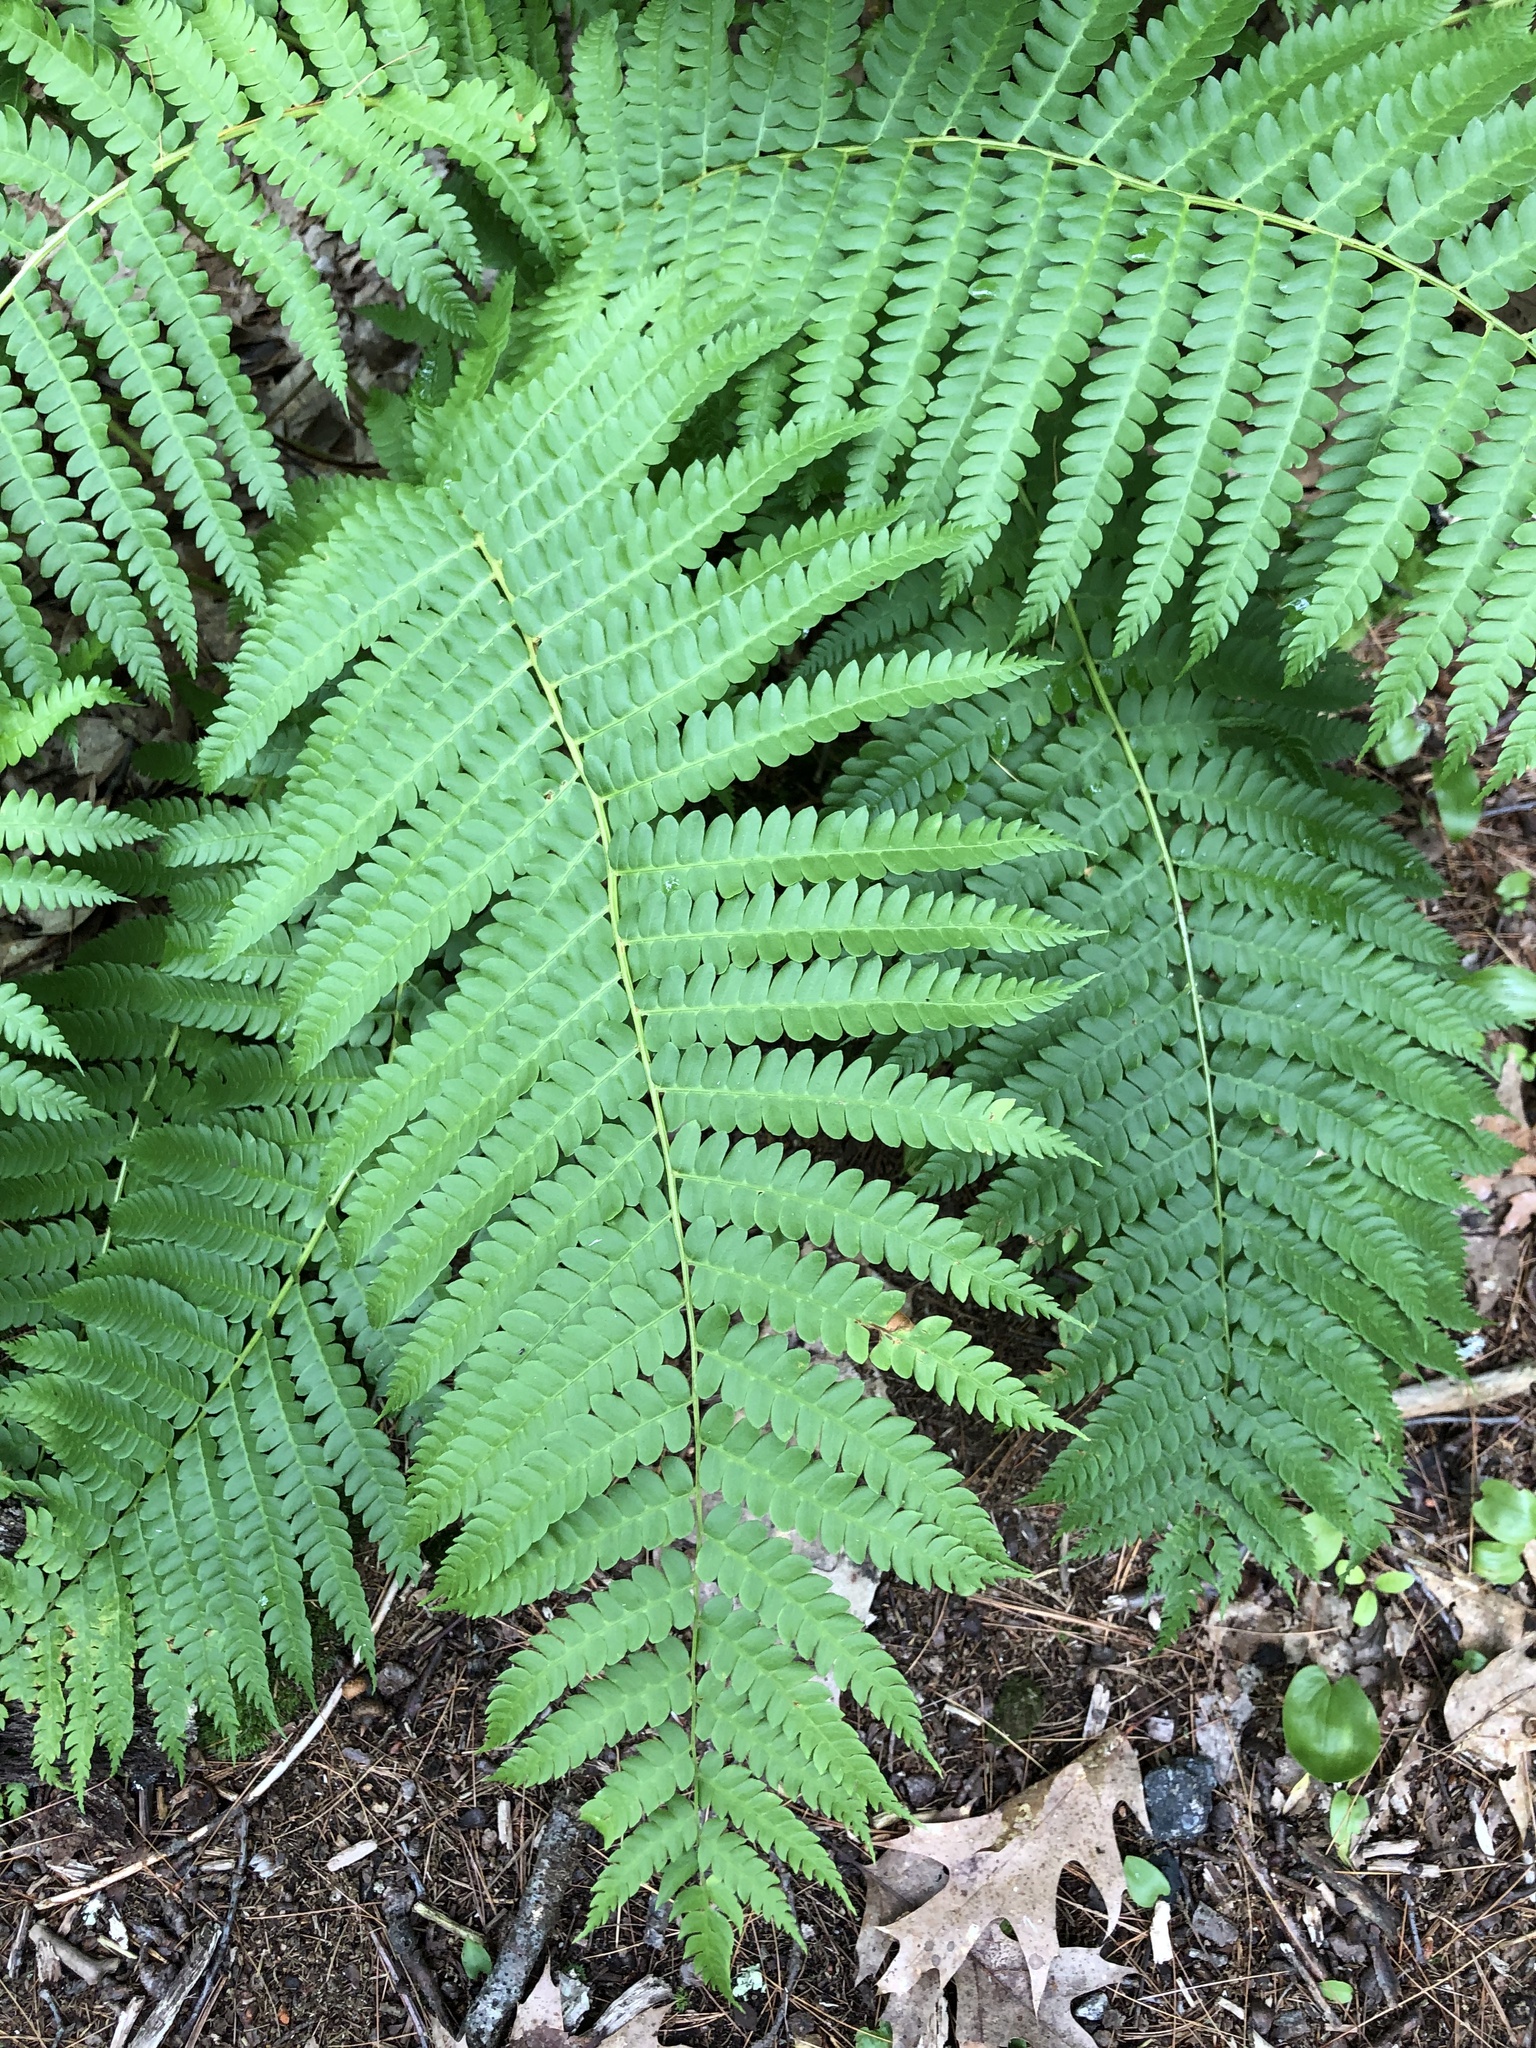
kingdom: Plantae
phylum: Tracheophyta
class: Polypodiopsida
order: Osmundales
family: Osmundaceae
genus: Osmundastrum
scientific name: Osmundastrum cinnamomeum
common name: Cinnamon fern
